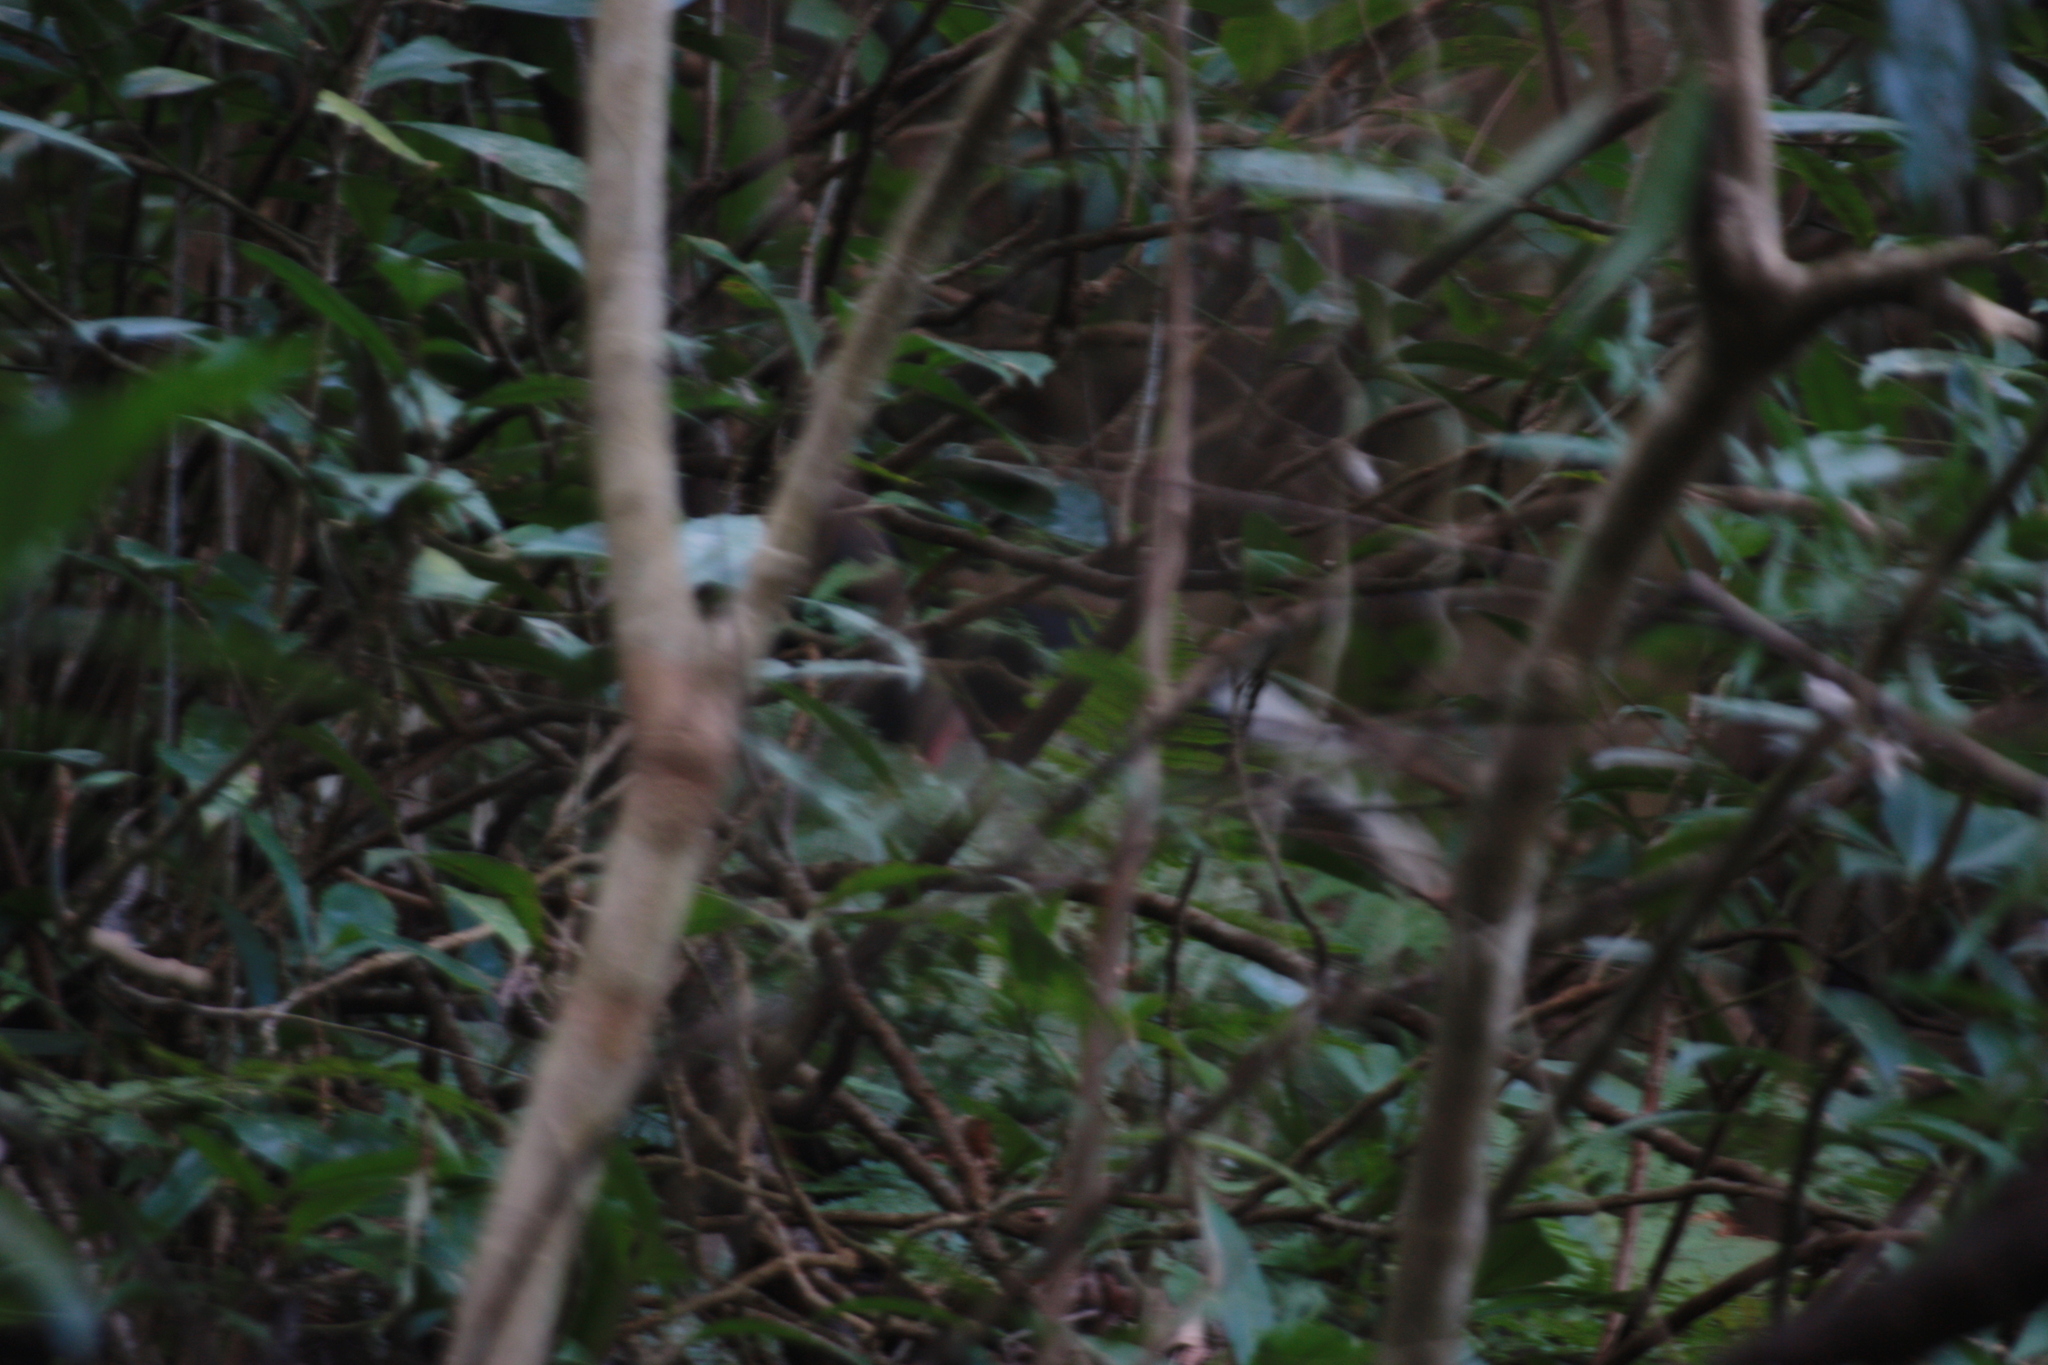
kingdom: Animalia
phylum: Chordata
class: Aves
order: Galliformes
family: Phasianidae
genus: Lophura
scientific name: Lophura swinhoii
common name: Swinhoe's pheasant
